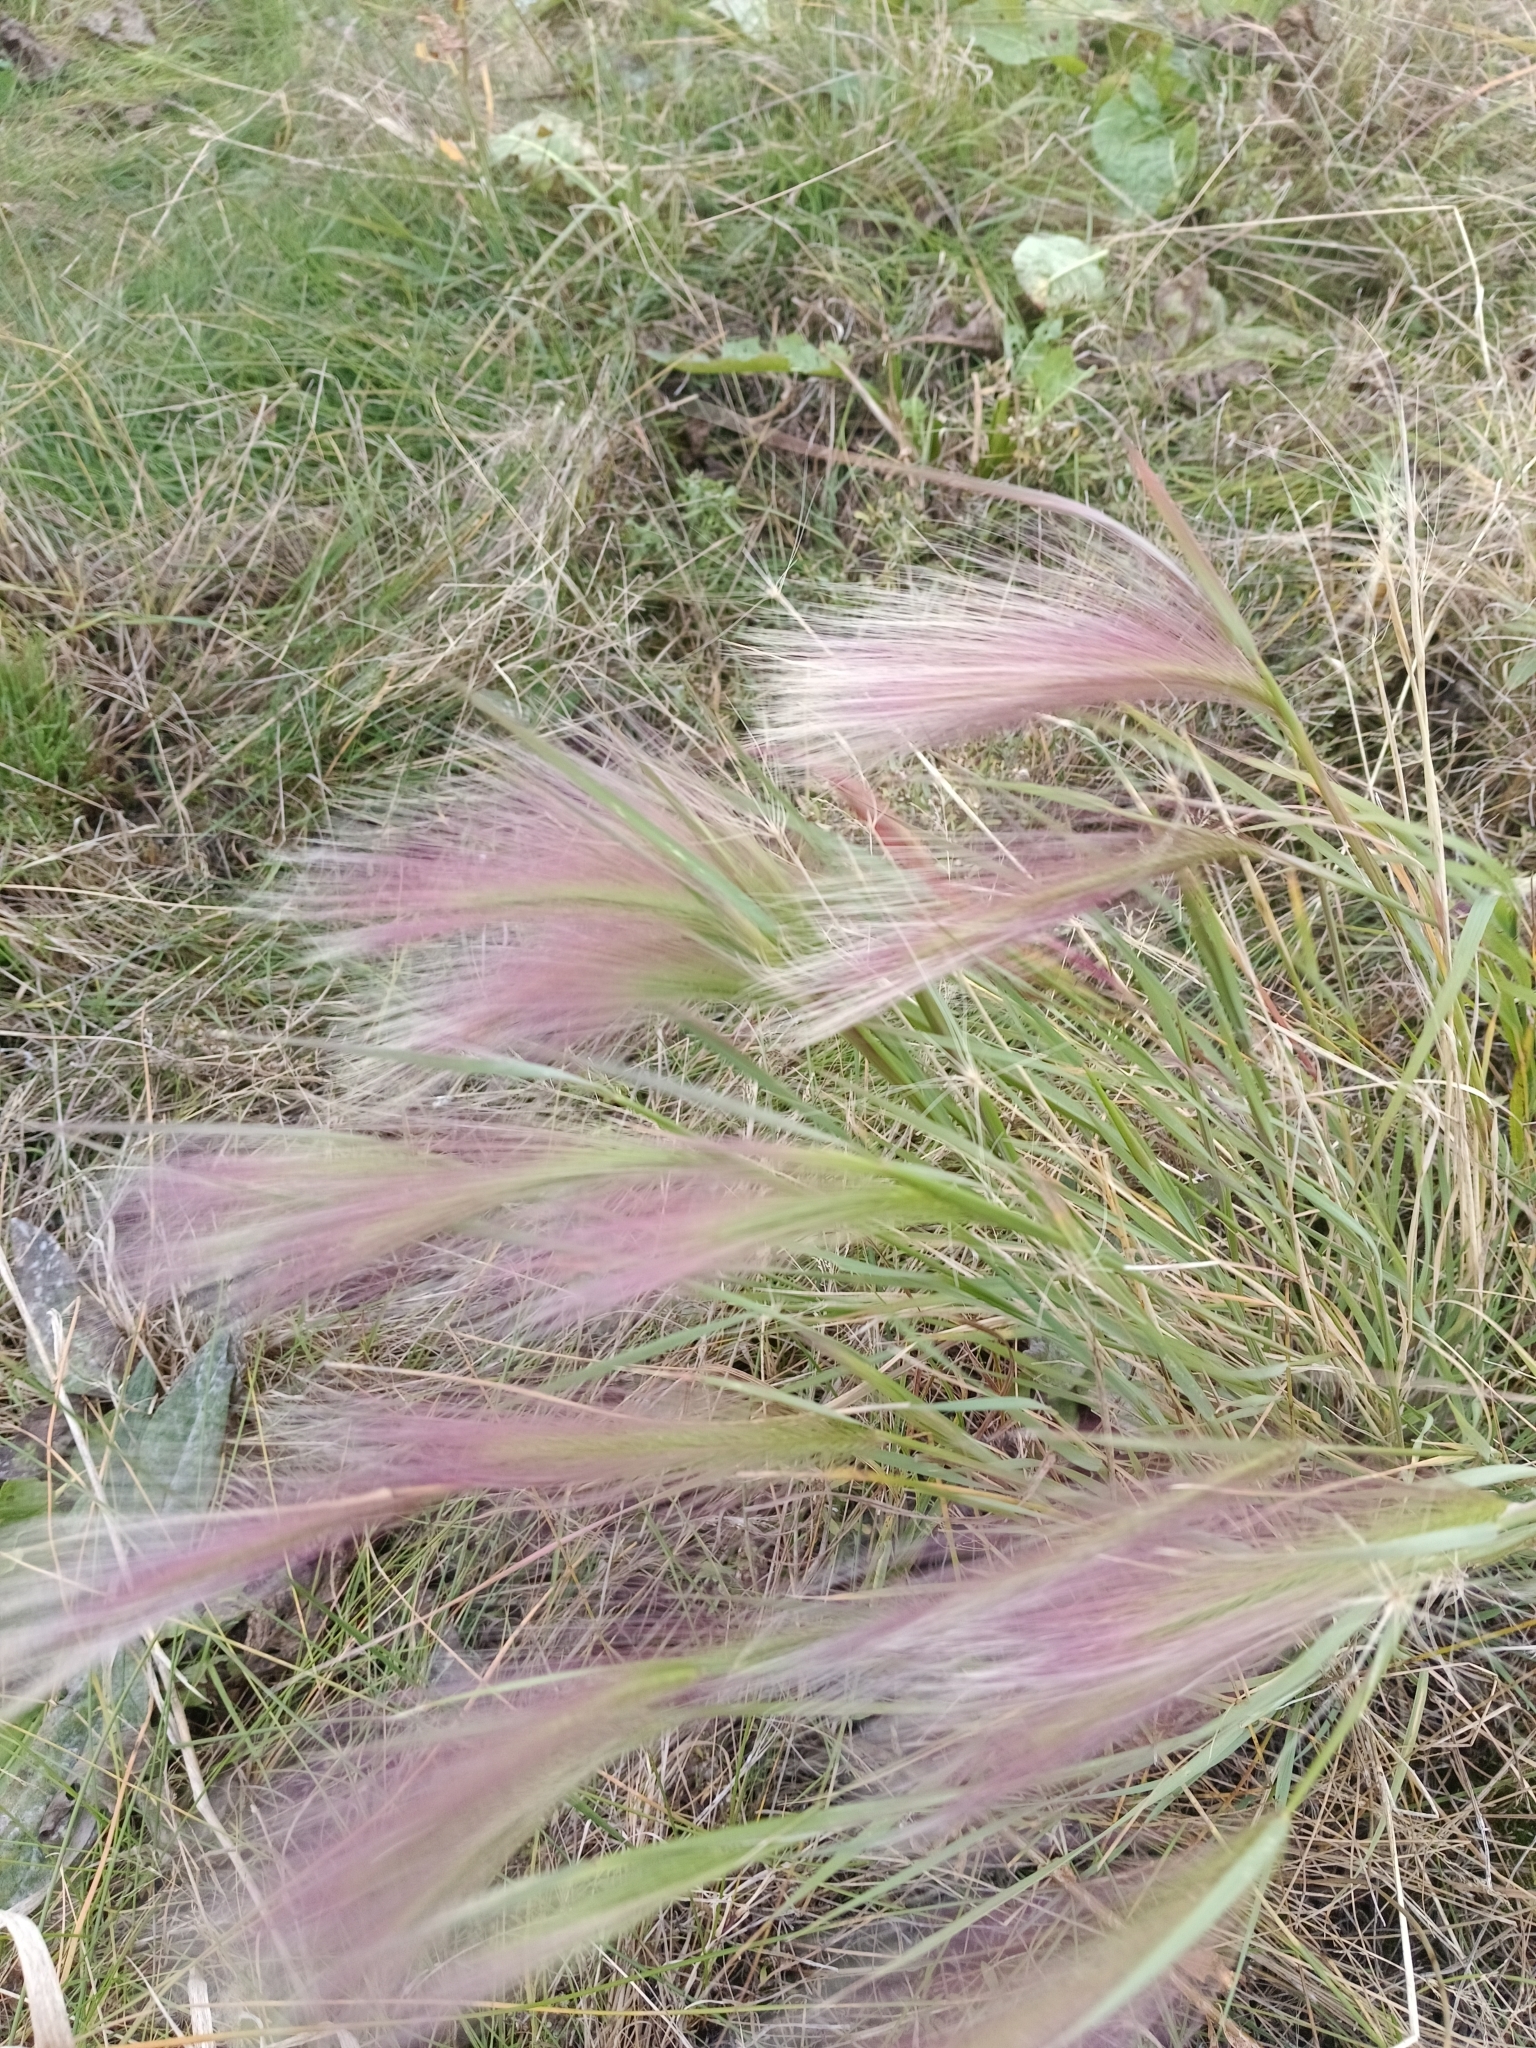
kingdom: Plantae
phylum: Tracheophyta
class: Liliopsida
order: Poales
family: Poaceae
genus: Hordeum
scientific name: Hordeum jubatum
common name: Foxtail barley
